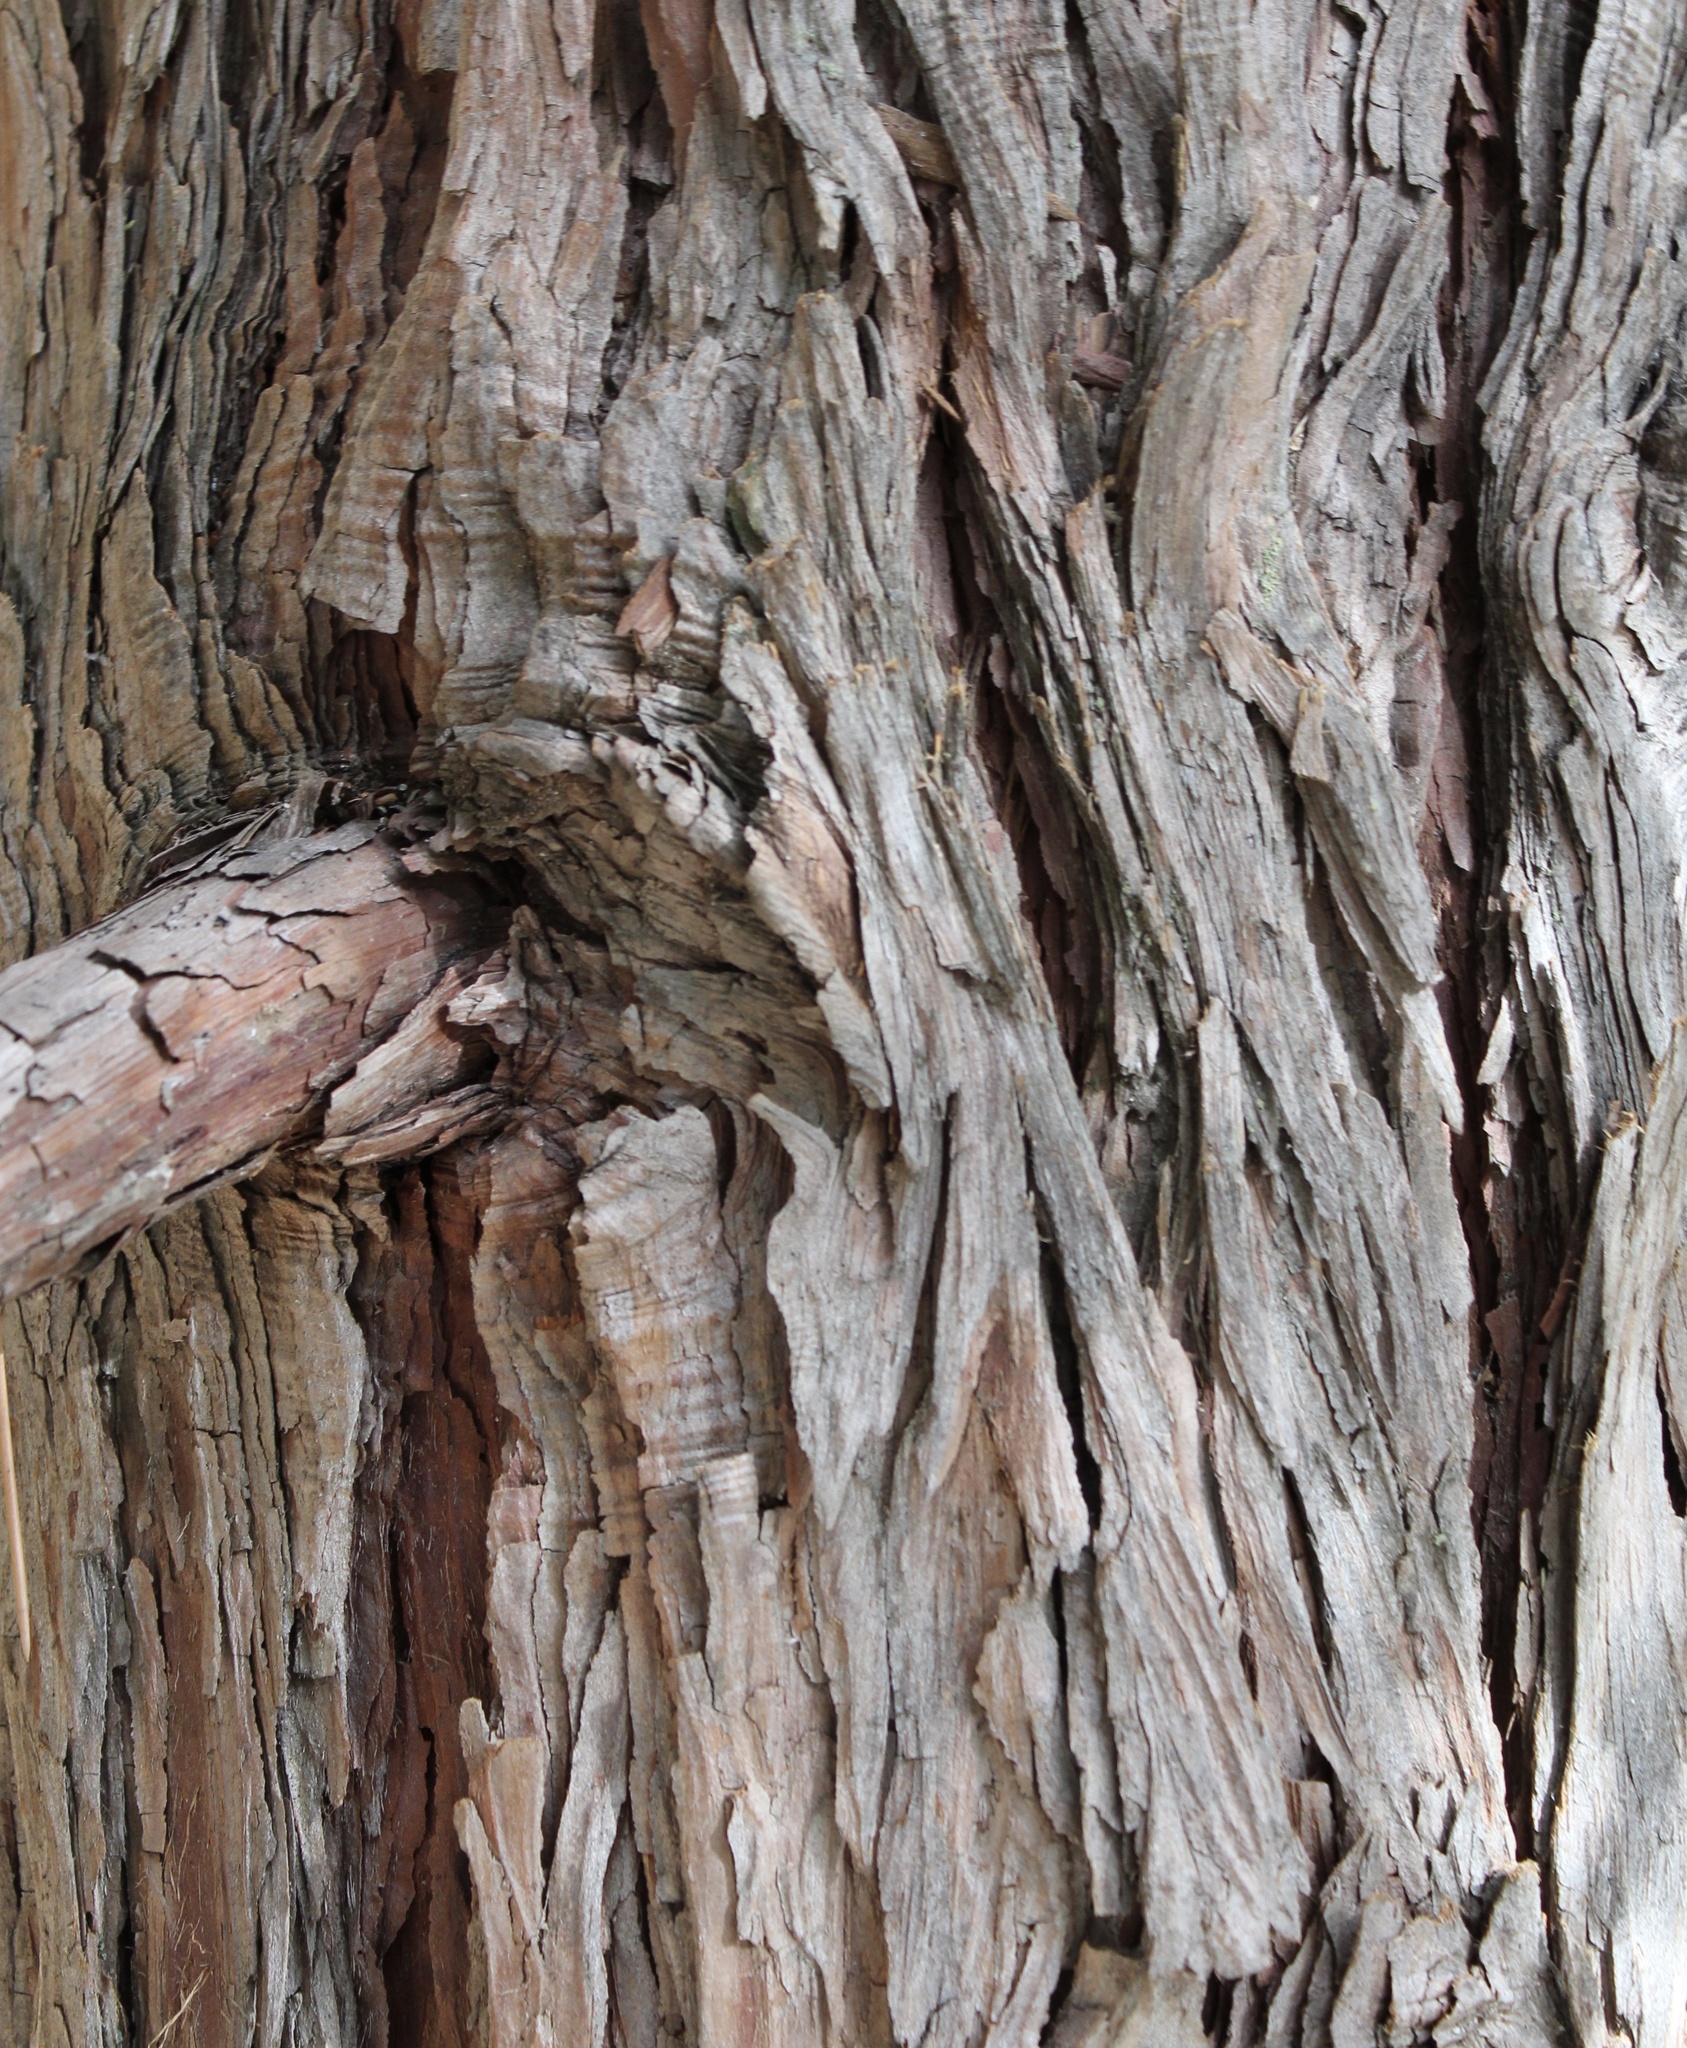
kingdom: Plantae
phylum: Tracheophyta
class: Pinopsida
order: Pinales
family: Cupressaceae
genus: Calocedrus
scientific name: Calocedrus decurrens
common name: Californian incense-cedar
